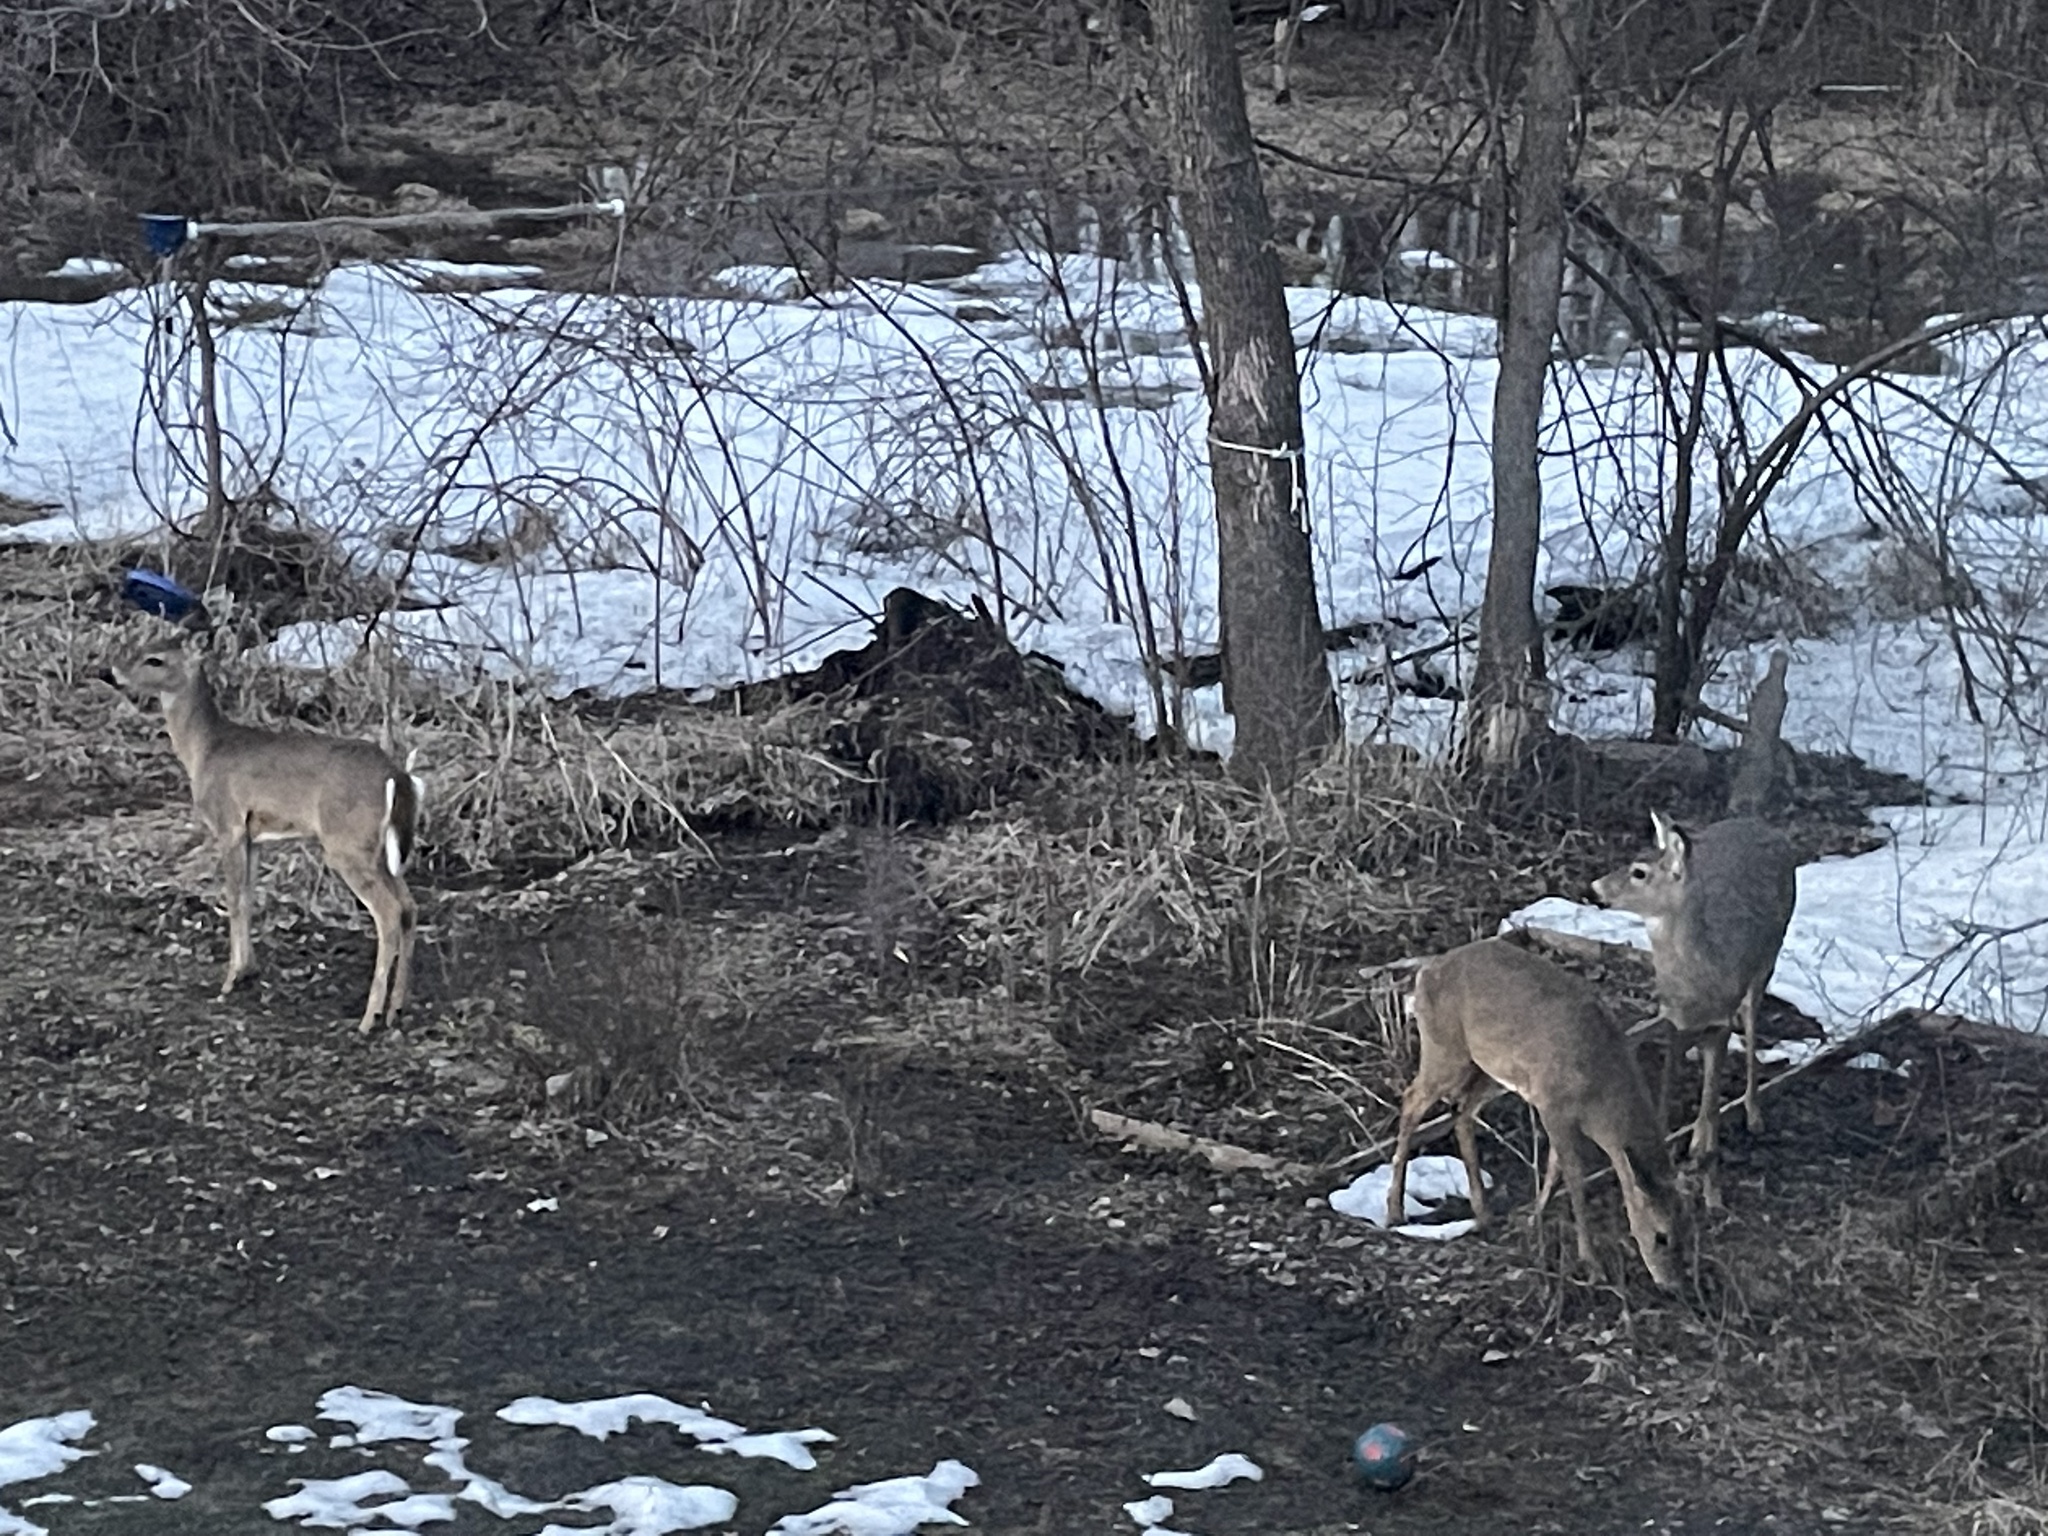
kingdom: Animalia
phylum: Chordata
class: Mammalia
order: Artiodactyla
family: Cervidae
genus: Odocoileus
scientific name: Odocoileus virginianus
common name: White-tailed deer
